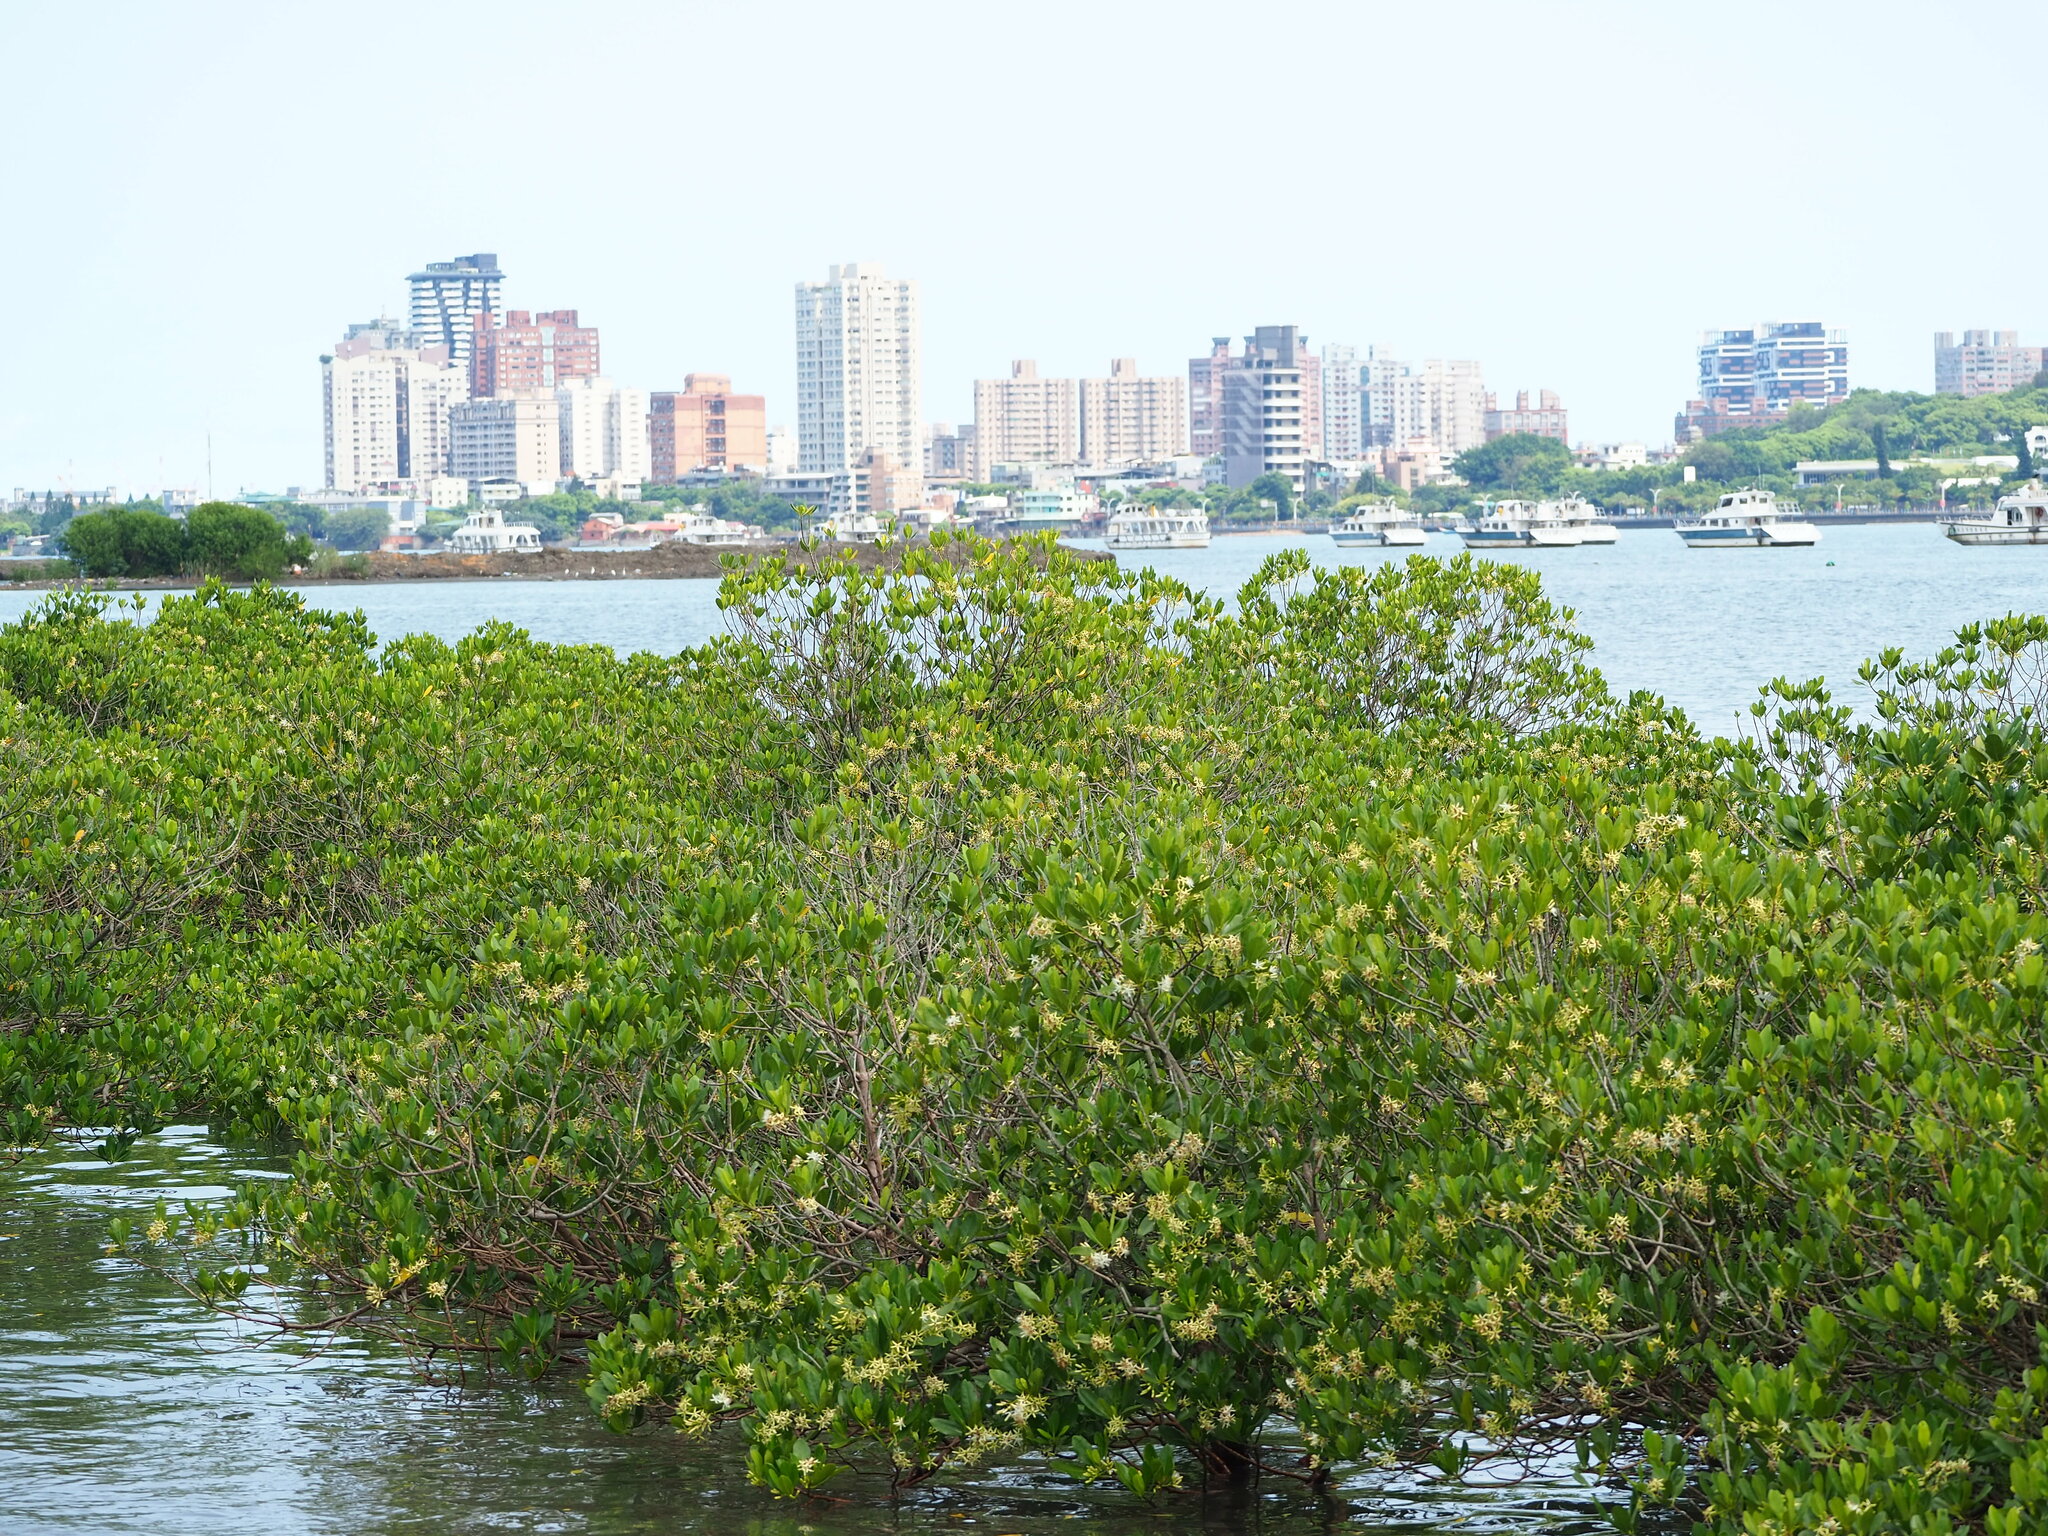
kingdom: Plantae
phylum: Tracheophyta
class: Magnoliopsida
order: Malpighiales
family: Rhizophoraceae
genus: Kandelia
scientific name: Kandelia obovata
